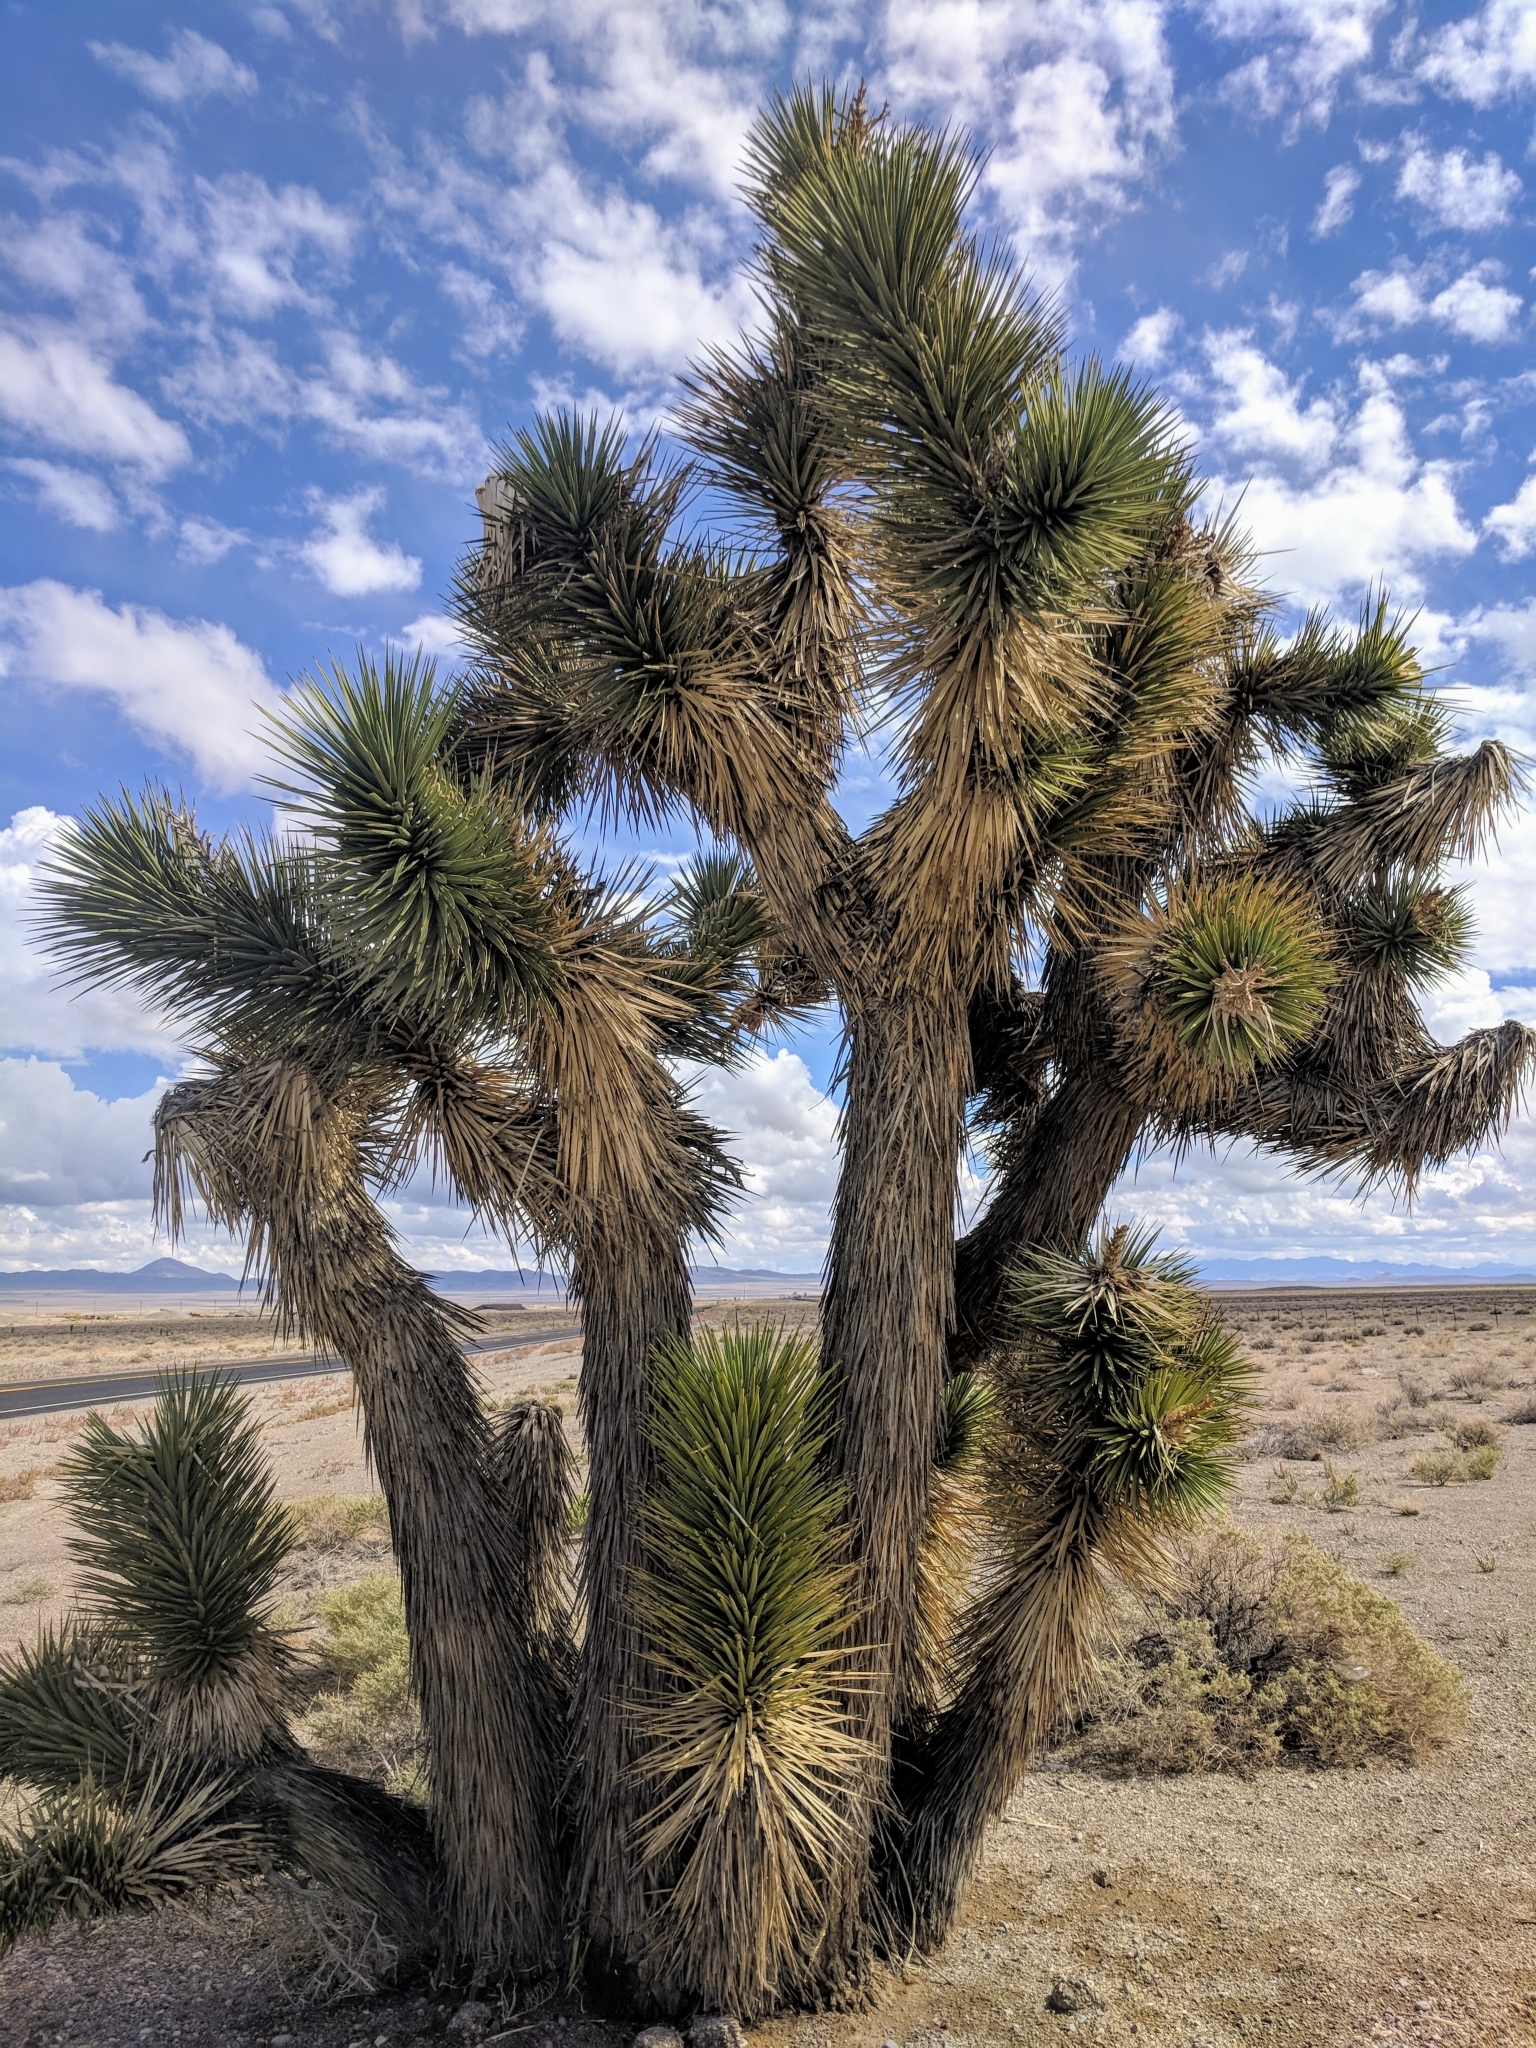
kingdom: Plantae
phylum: Tracheophyta
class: Liliopsida
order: Asparagales
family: Asparagaceae
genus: Yucca
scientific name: Yucca brevifolia
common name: Joshua tree
